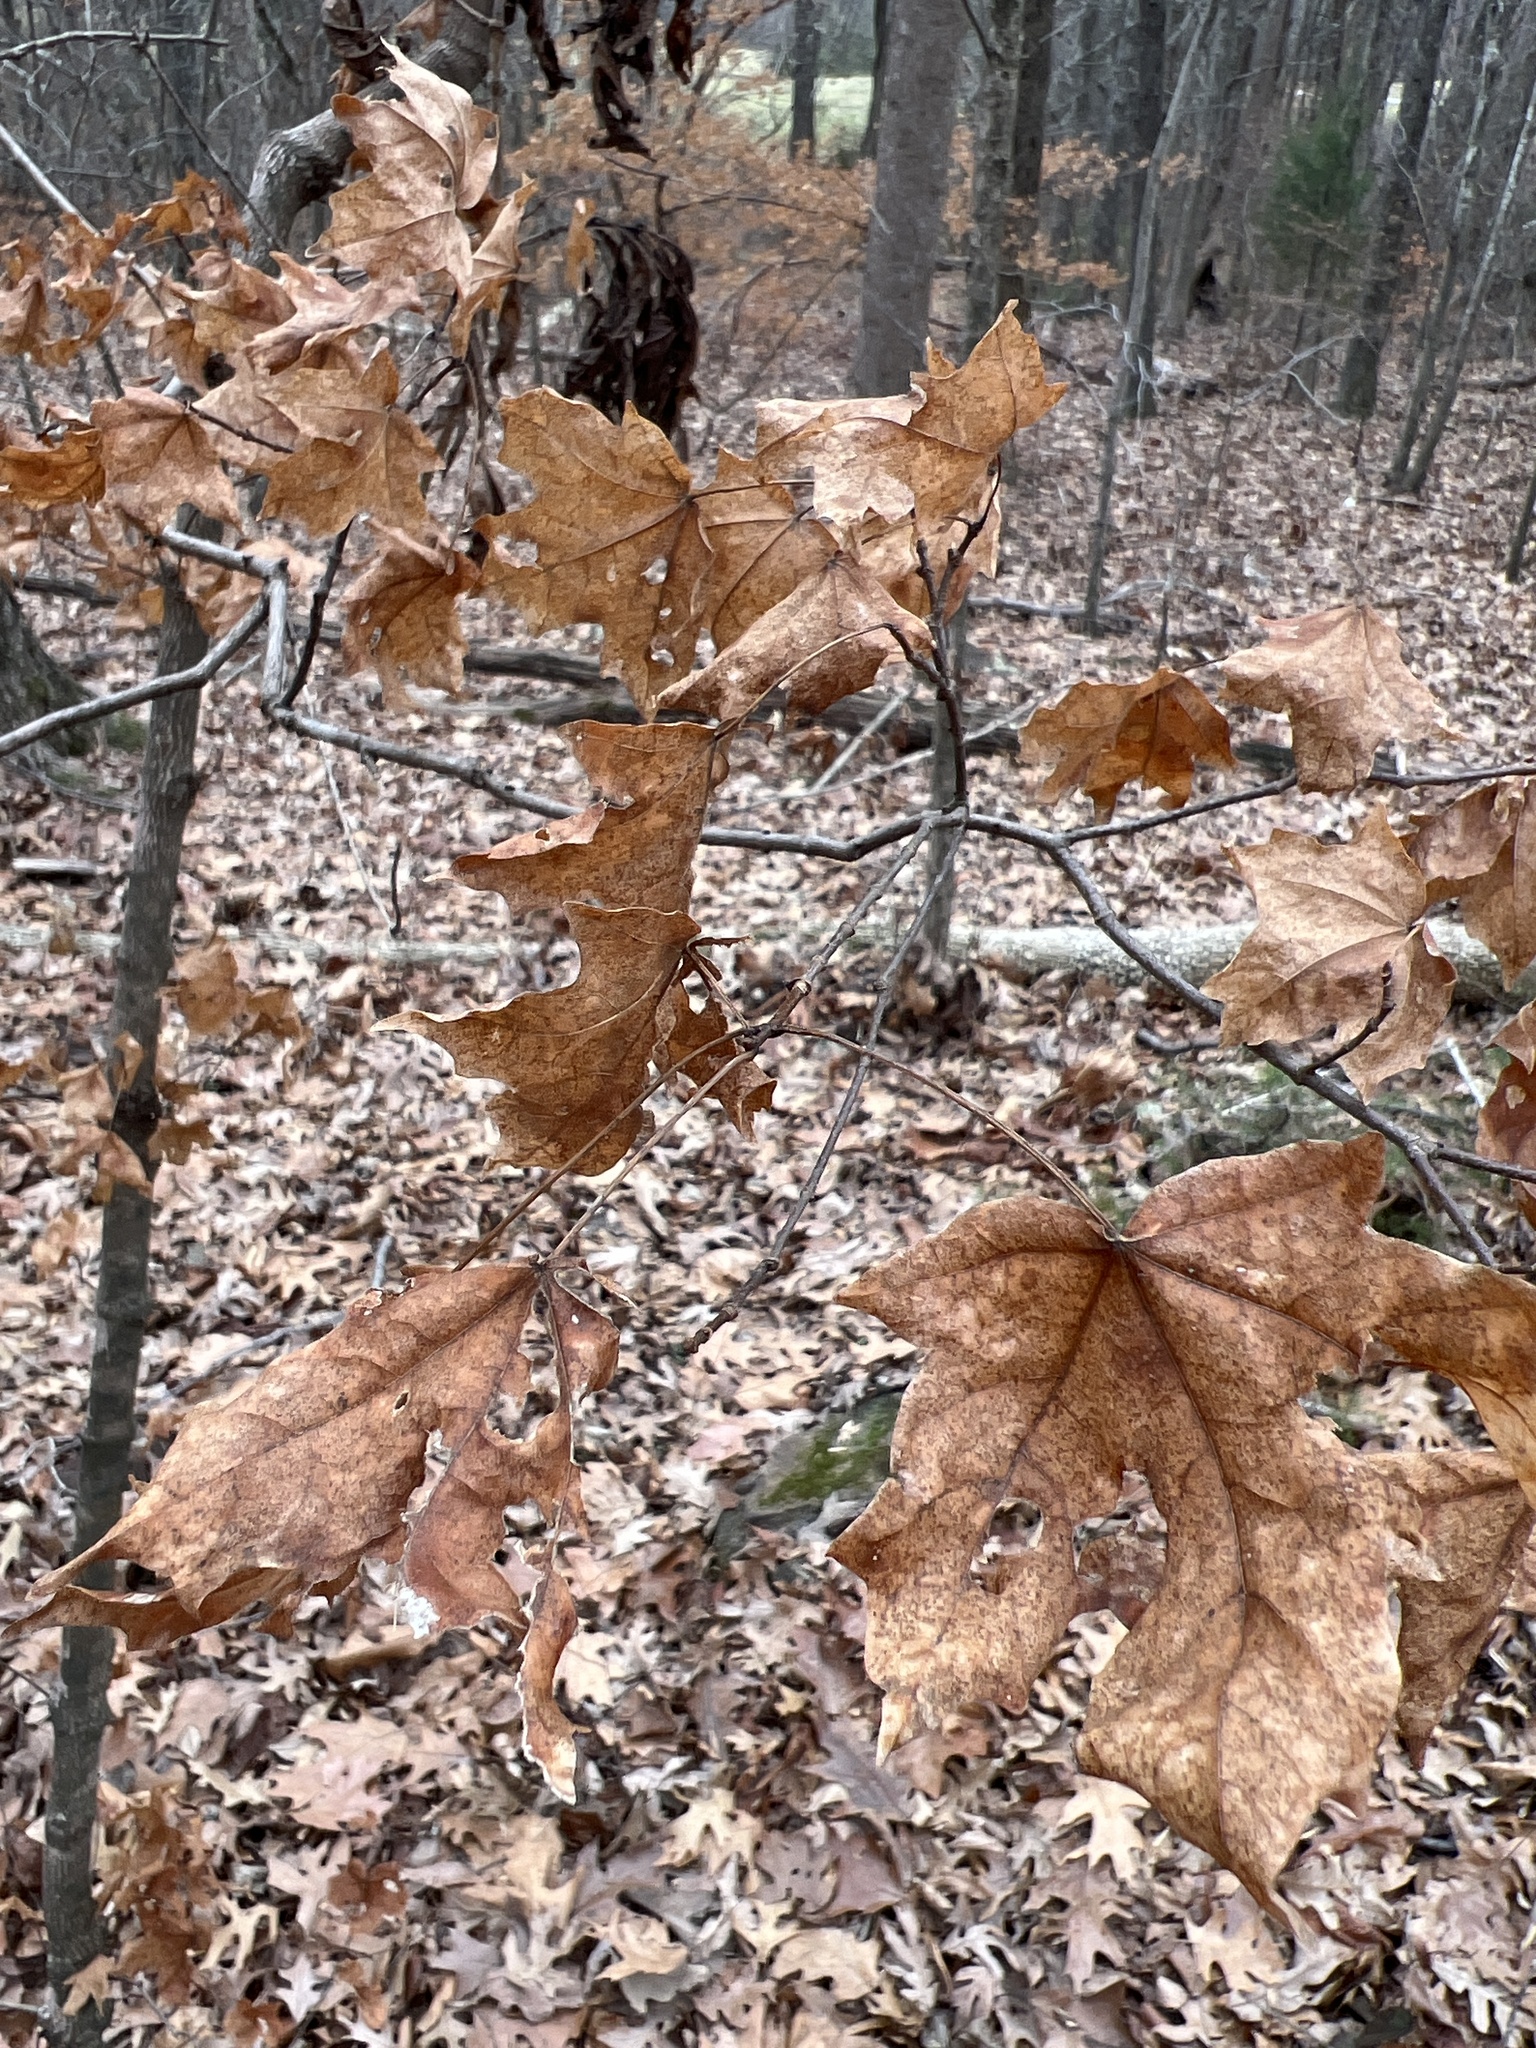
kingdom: Plantae
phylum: Tracheophyta
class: Magnoliopsida
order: Sapindales
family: Sapindaceae
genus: Acer
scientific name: Acer leucoderme
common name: Chalk maple
